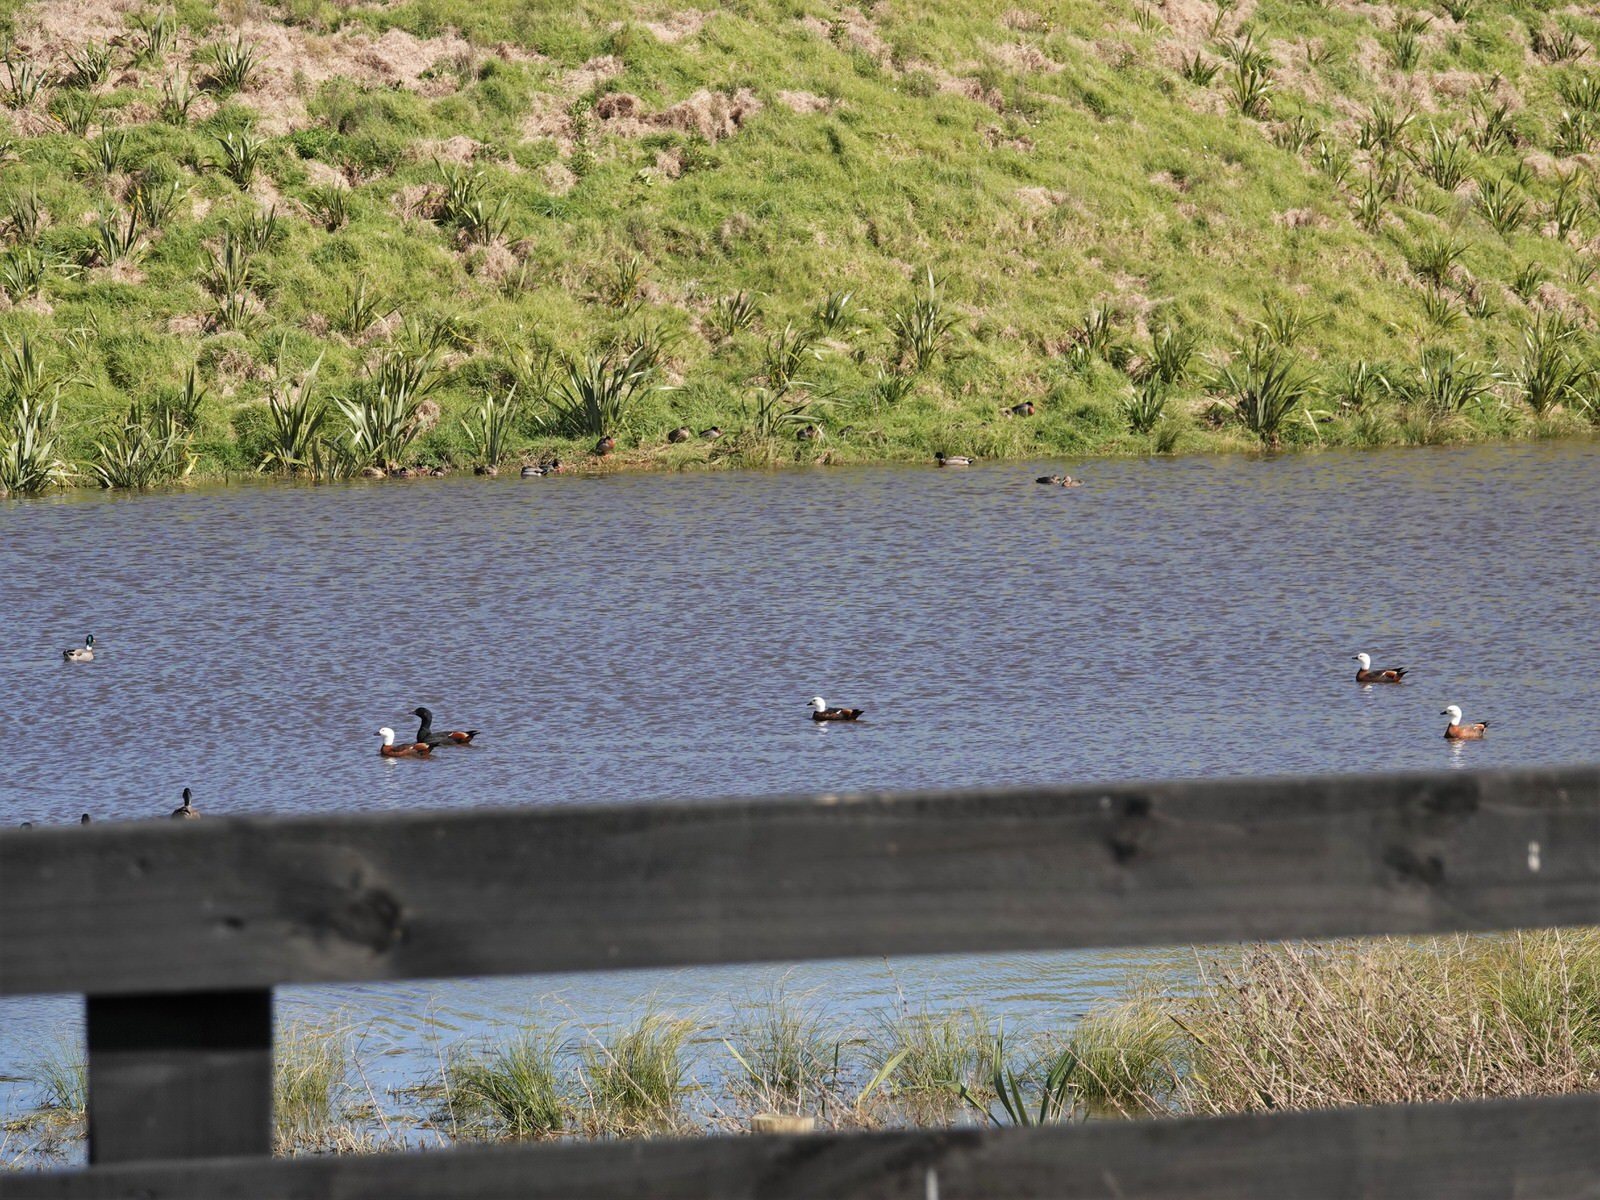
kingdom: Animalia
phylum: Chordata
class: Aves
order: Anseriformes
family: Anatidae
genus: Tadorna
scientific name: Tadorna variegata
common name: Paradise shelduck
